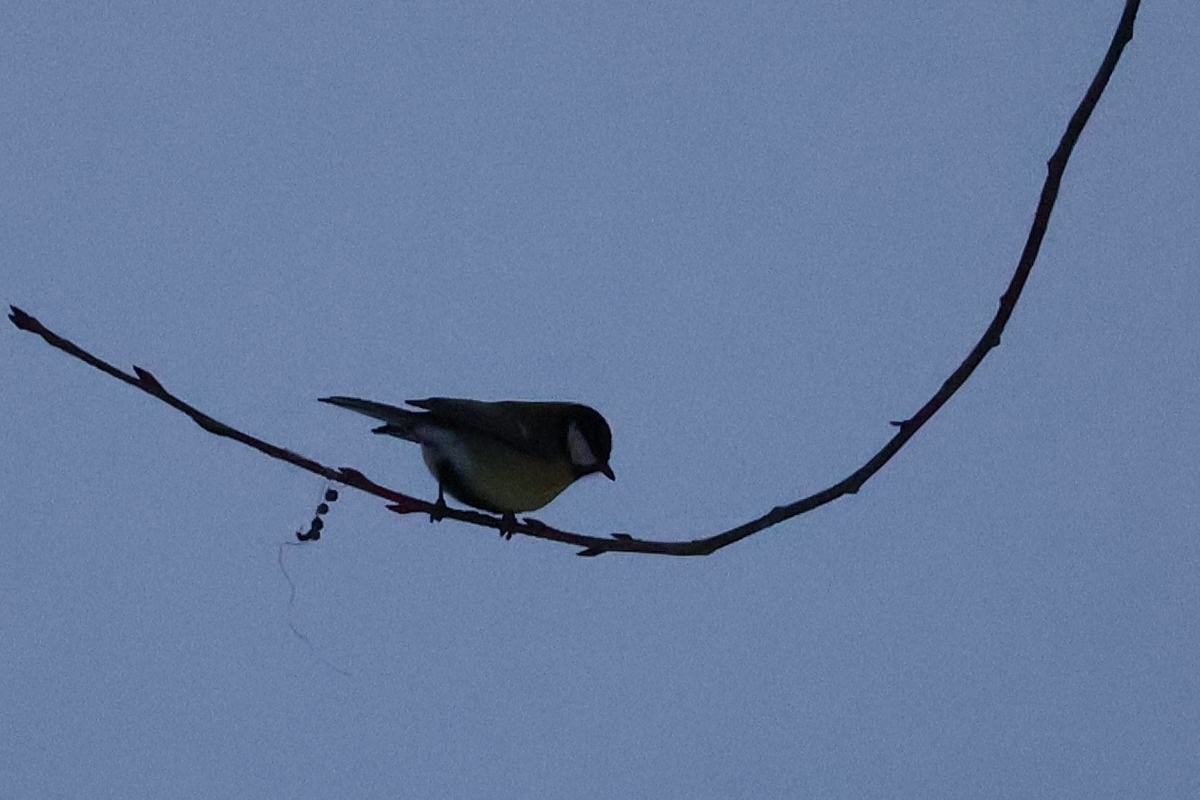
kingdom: Animalia
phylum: Chordata
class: Aves
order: Passeriformes
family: Paridae
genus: Parus
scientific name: Parus major
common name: Great tit
